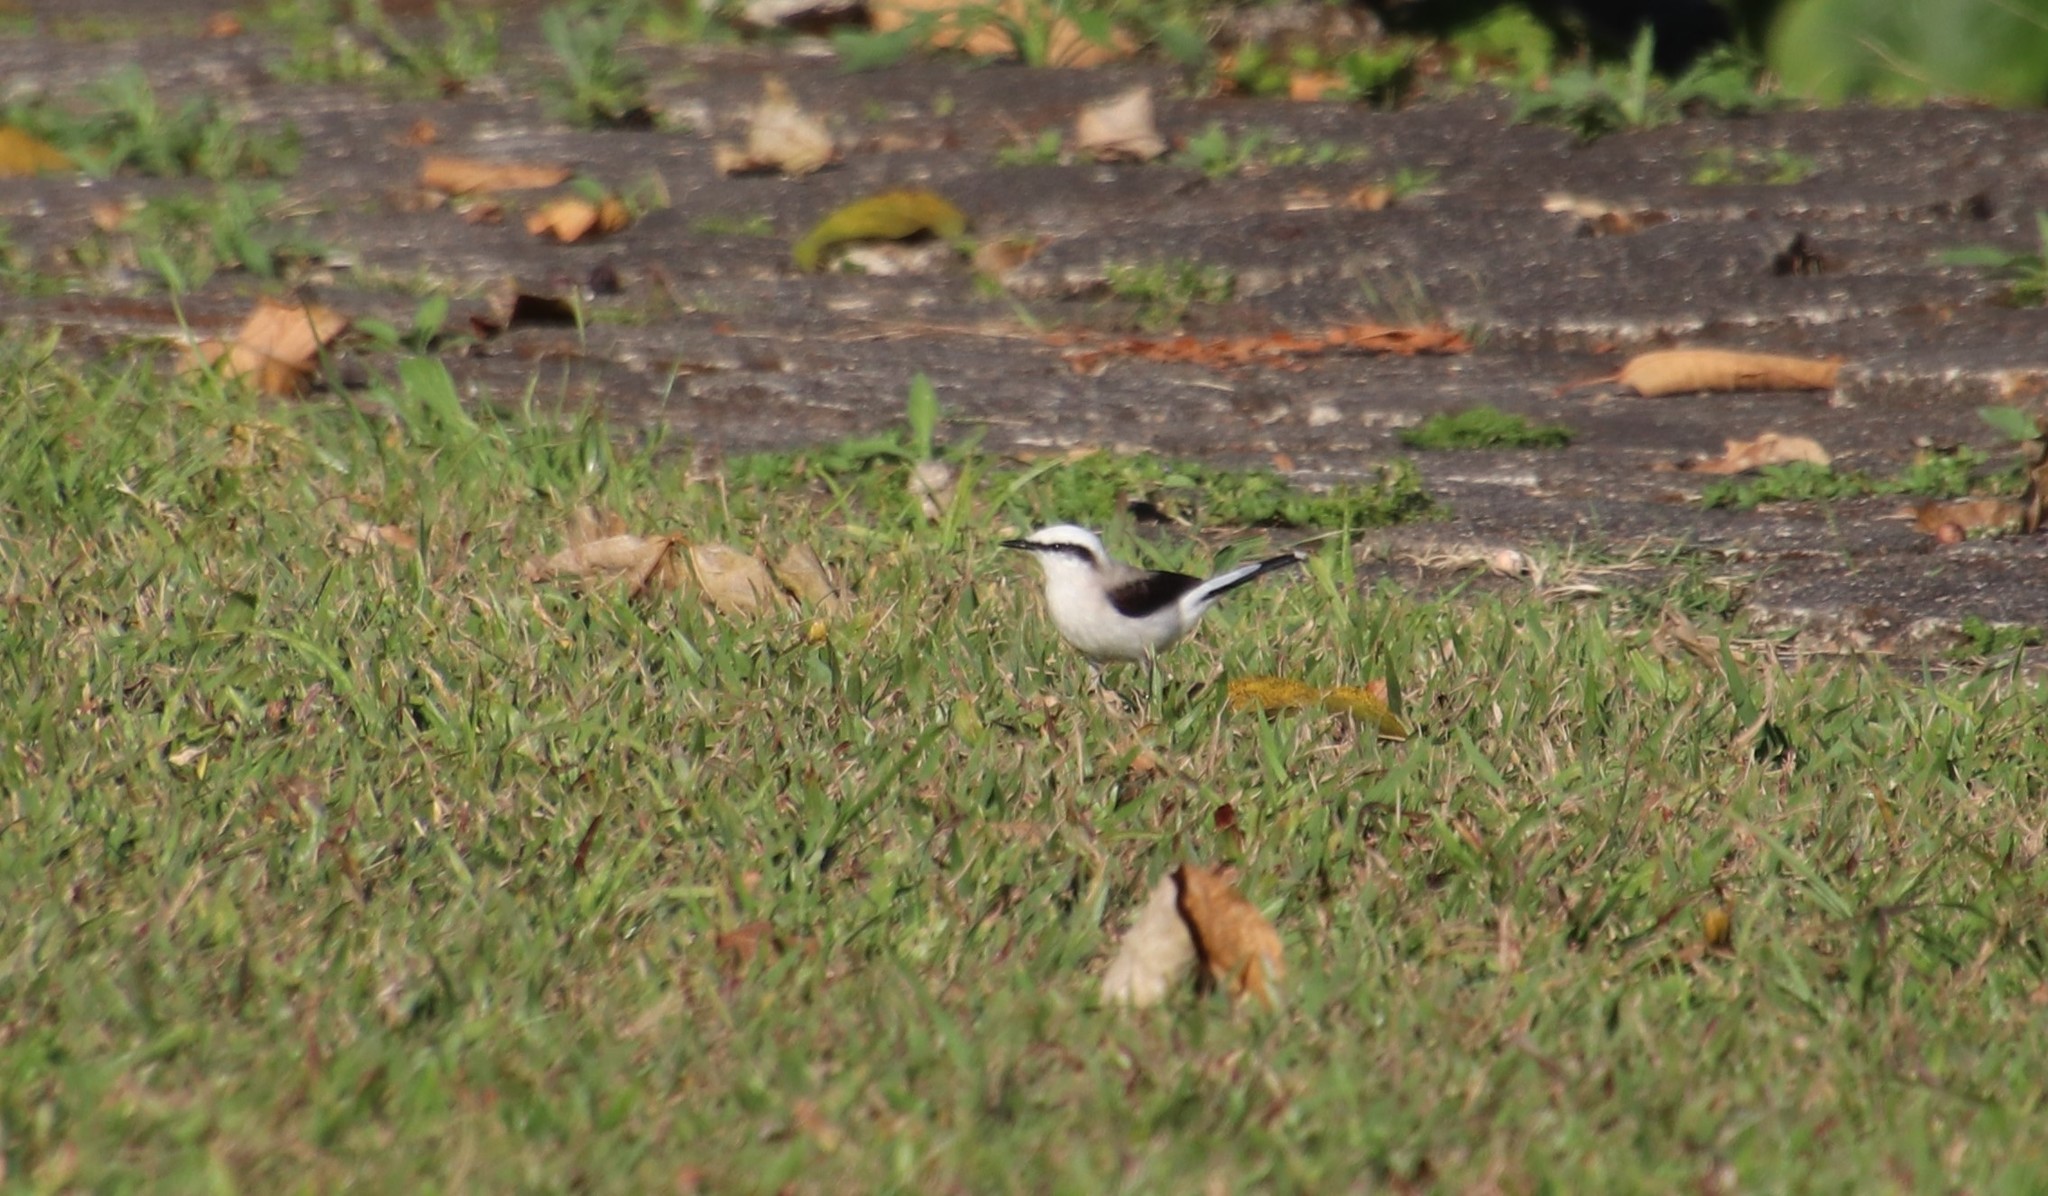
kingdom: Animalia
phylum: Chordata
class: Aves
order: Passeriformes
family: Tyrannidae
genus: Fluvicola
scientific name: Fluvicola nengeta
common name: Masked water tyrant
